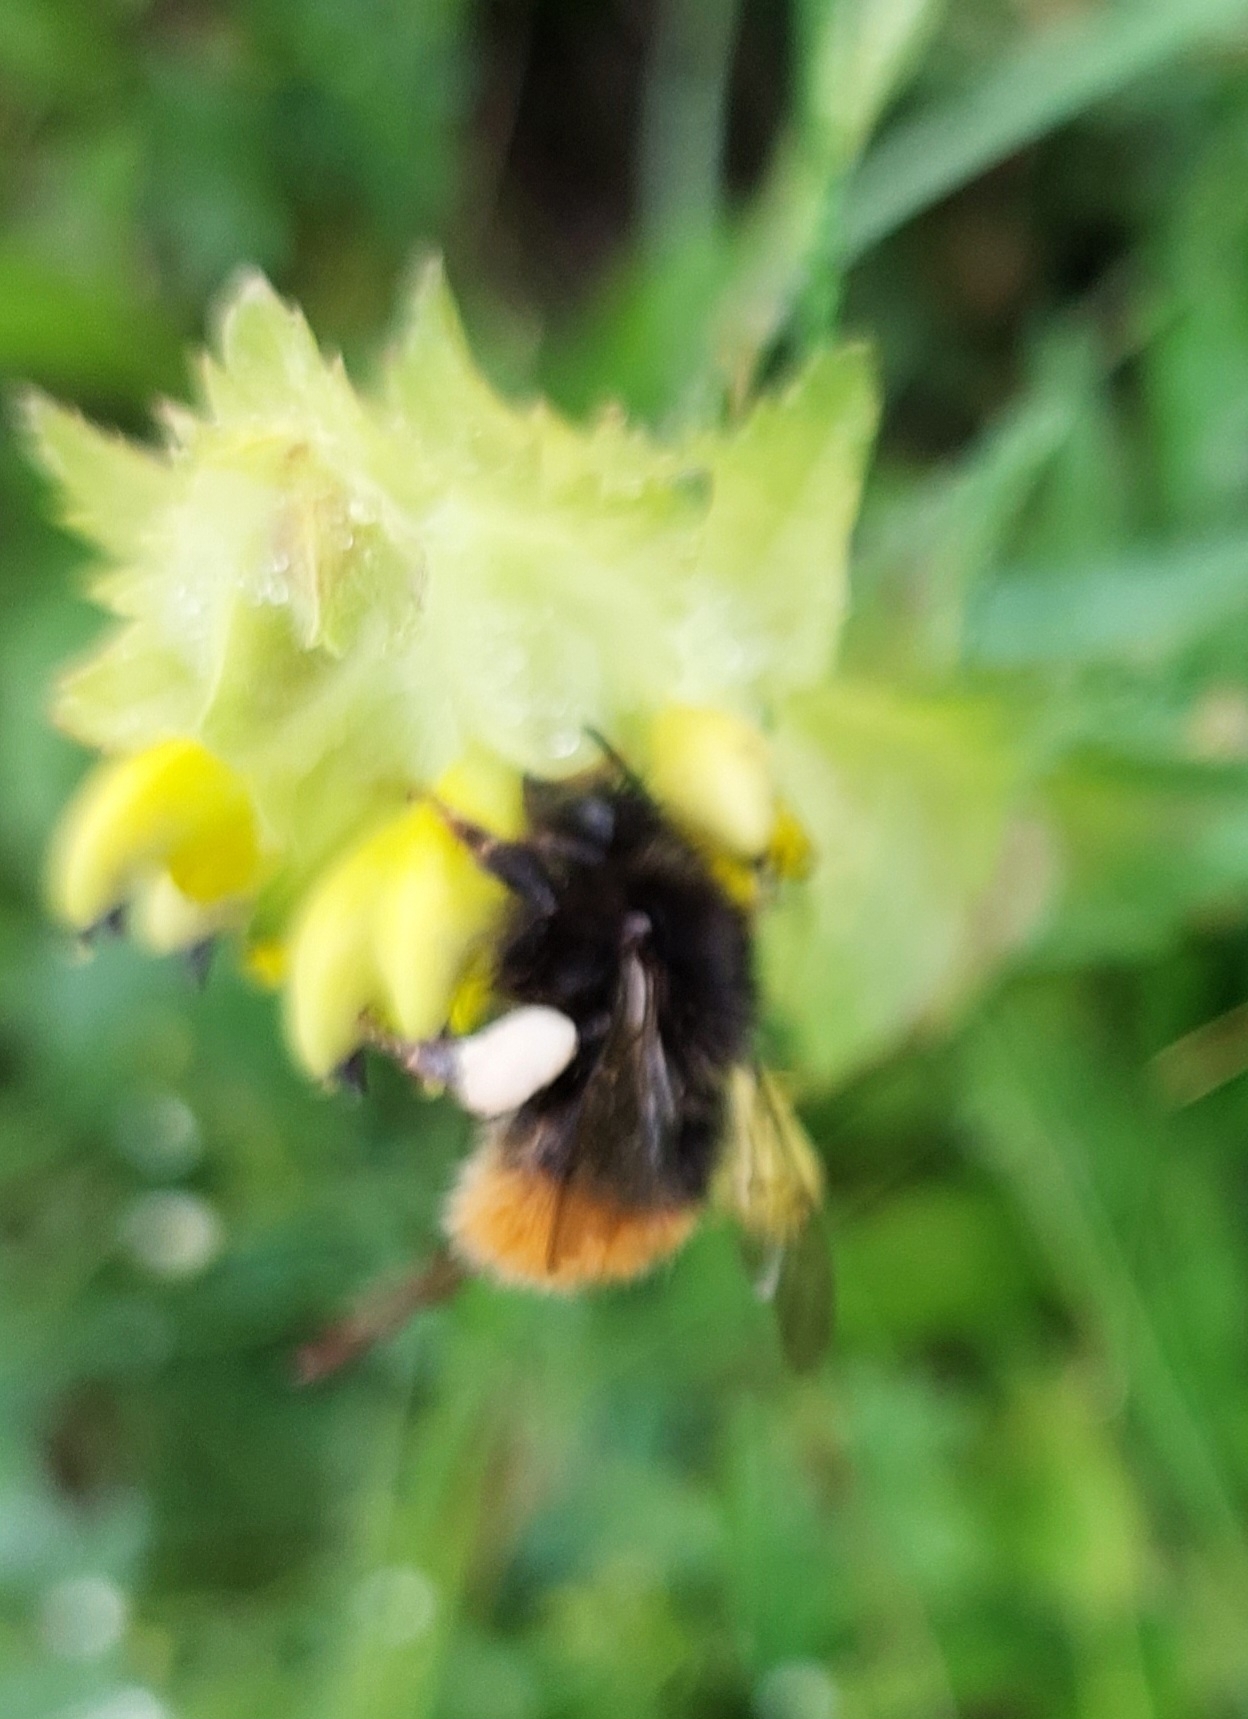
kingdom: Animalia
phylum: Arthropoda
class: Insecta
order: Hymenoptera
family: Apidae
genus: Bombus
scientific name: Bombus wurflenii
